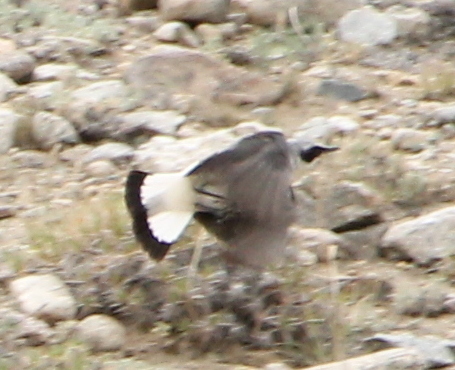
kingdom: Animalia
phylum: Chordata
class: Aves
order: Passeriformes
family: Muscicapidae
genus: Oenanthe
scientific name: Oenanthe oenanthe
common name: Northern wheatear
